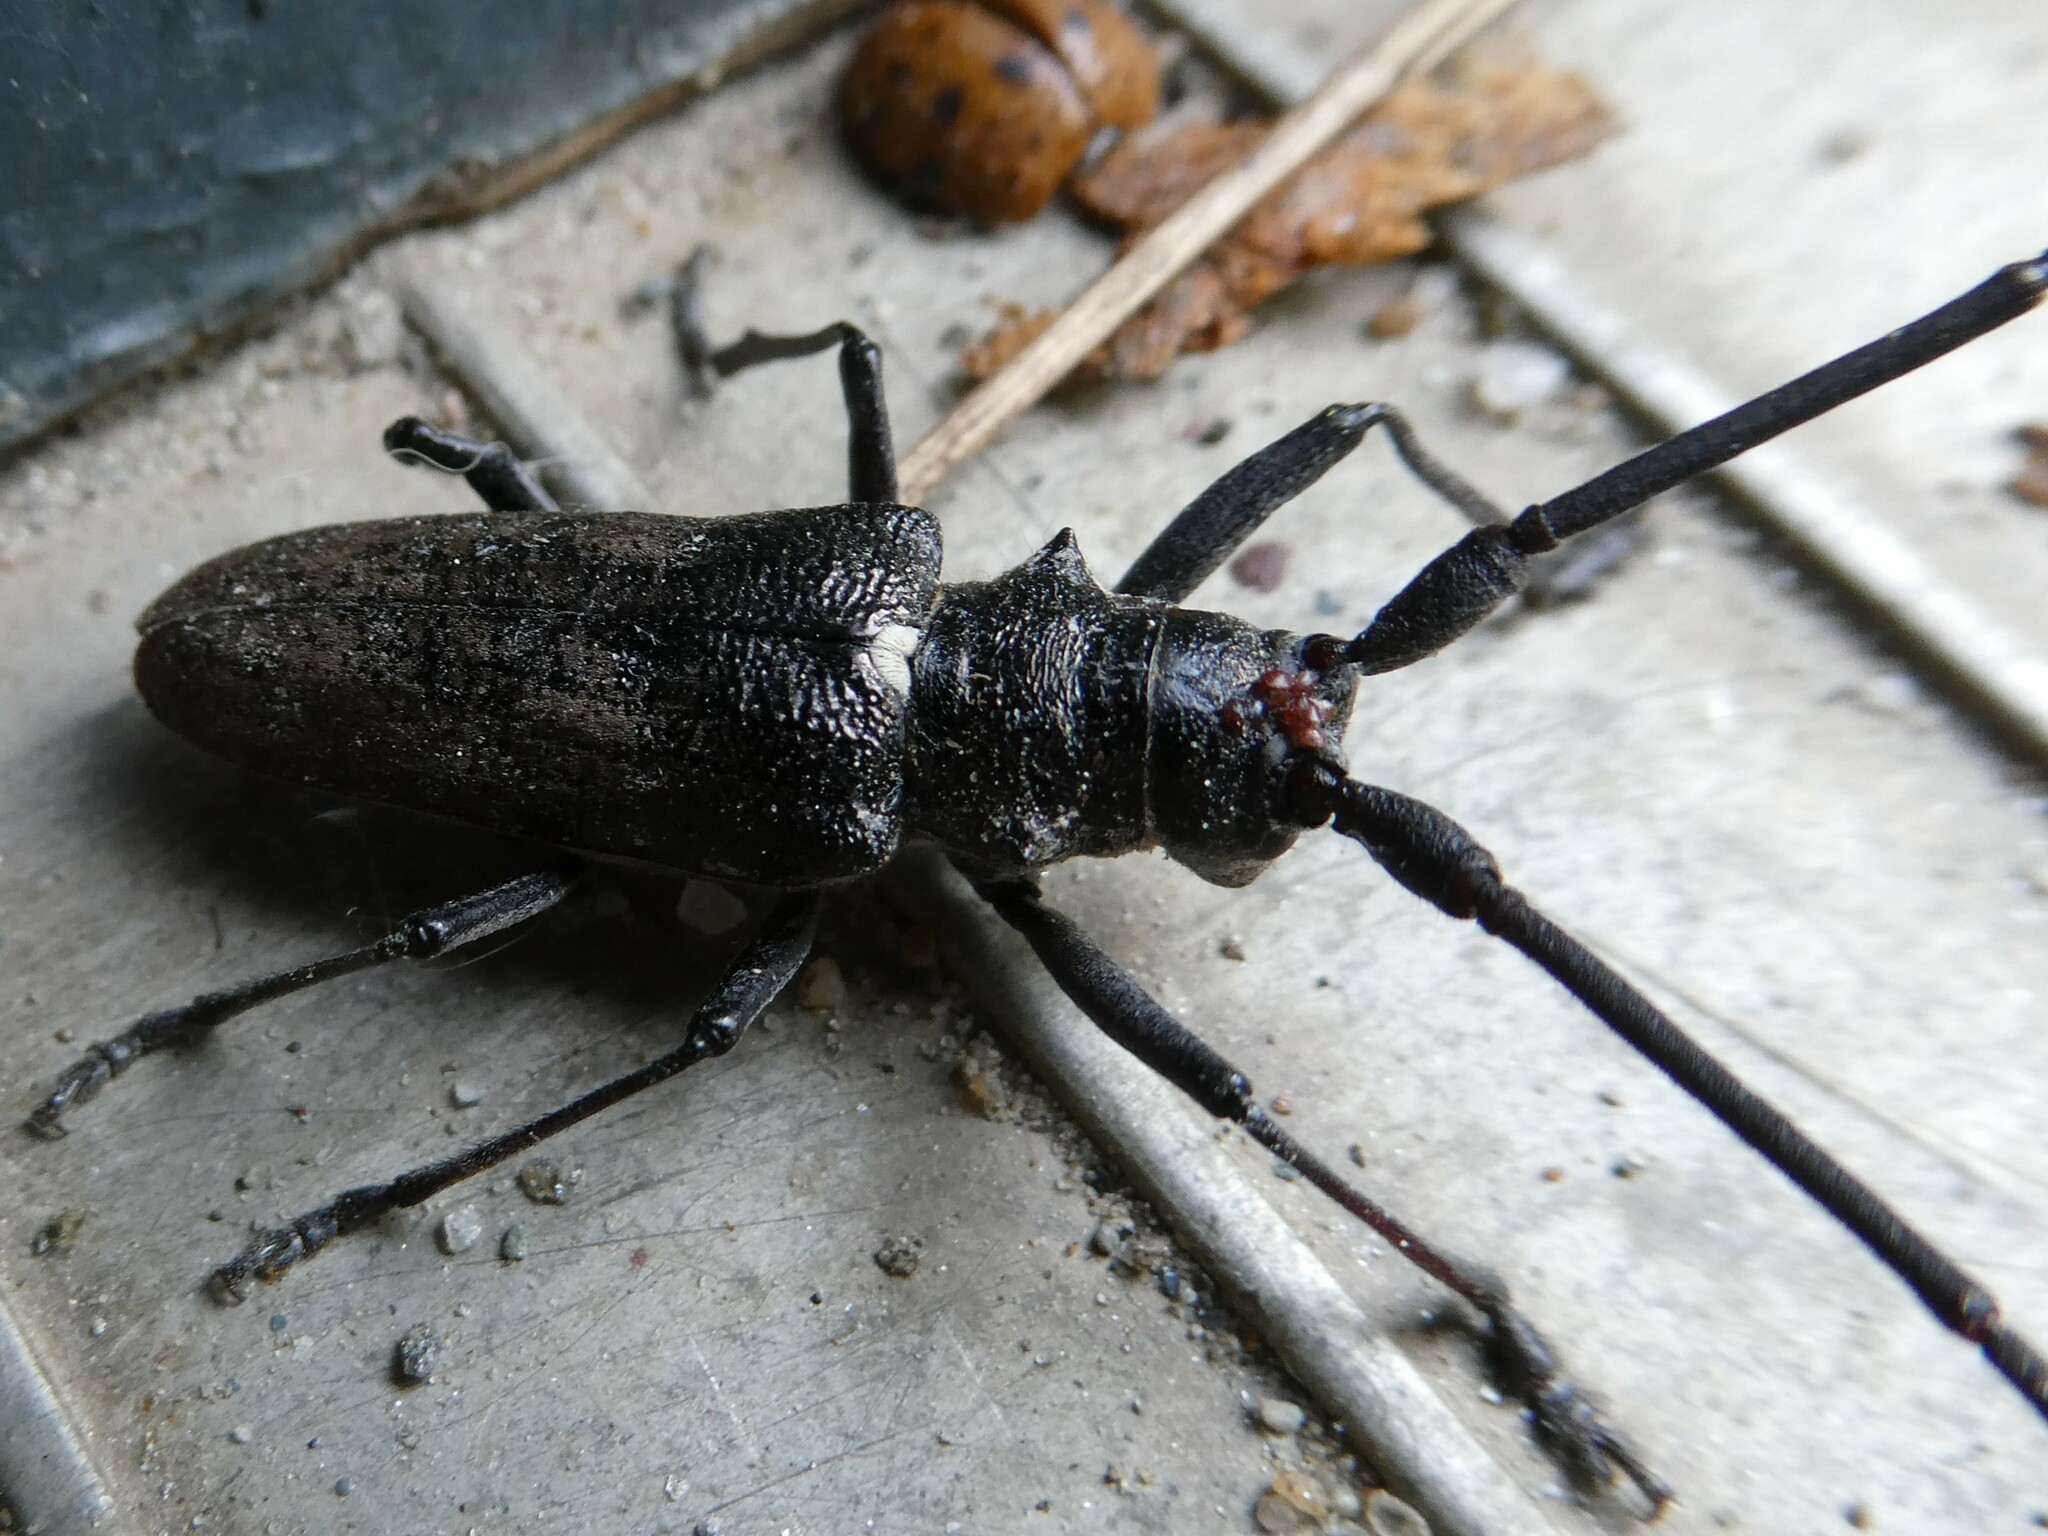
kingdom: Animalia
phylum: Arthropoda
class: Insecta
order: Coleoptera
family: Cerambycidae
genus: Monochamus
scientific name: Monochamus scutellatus
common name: White-spotted sawyer beetle
